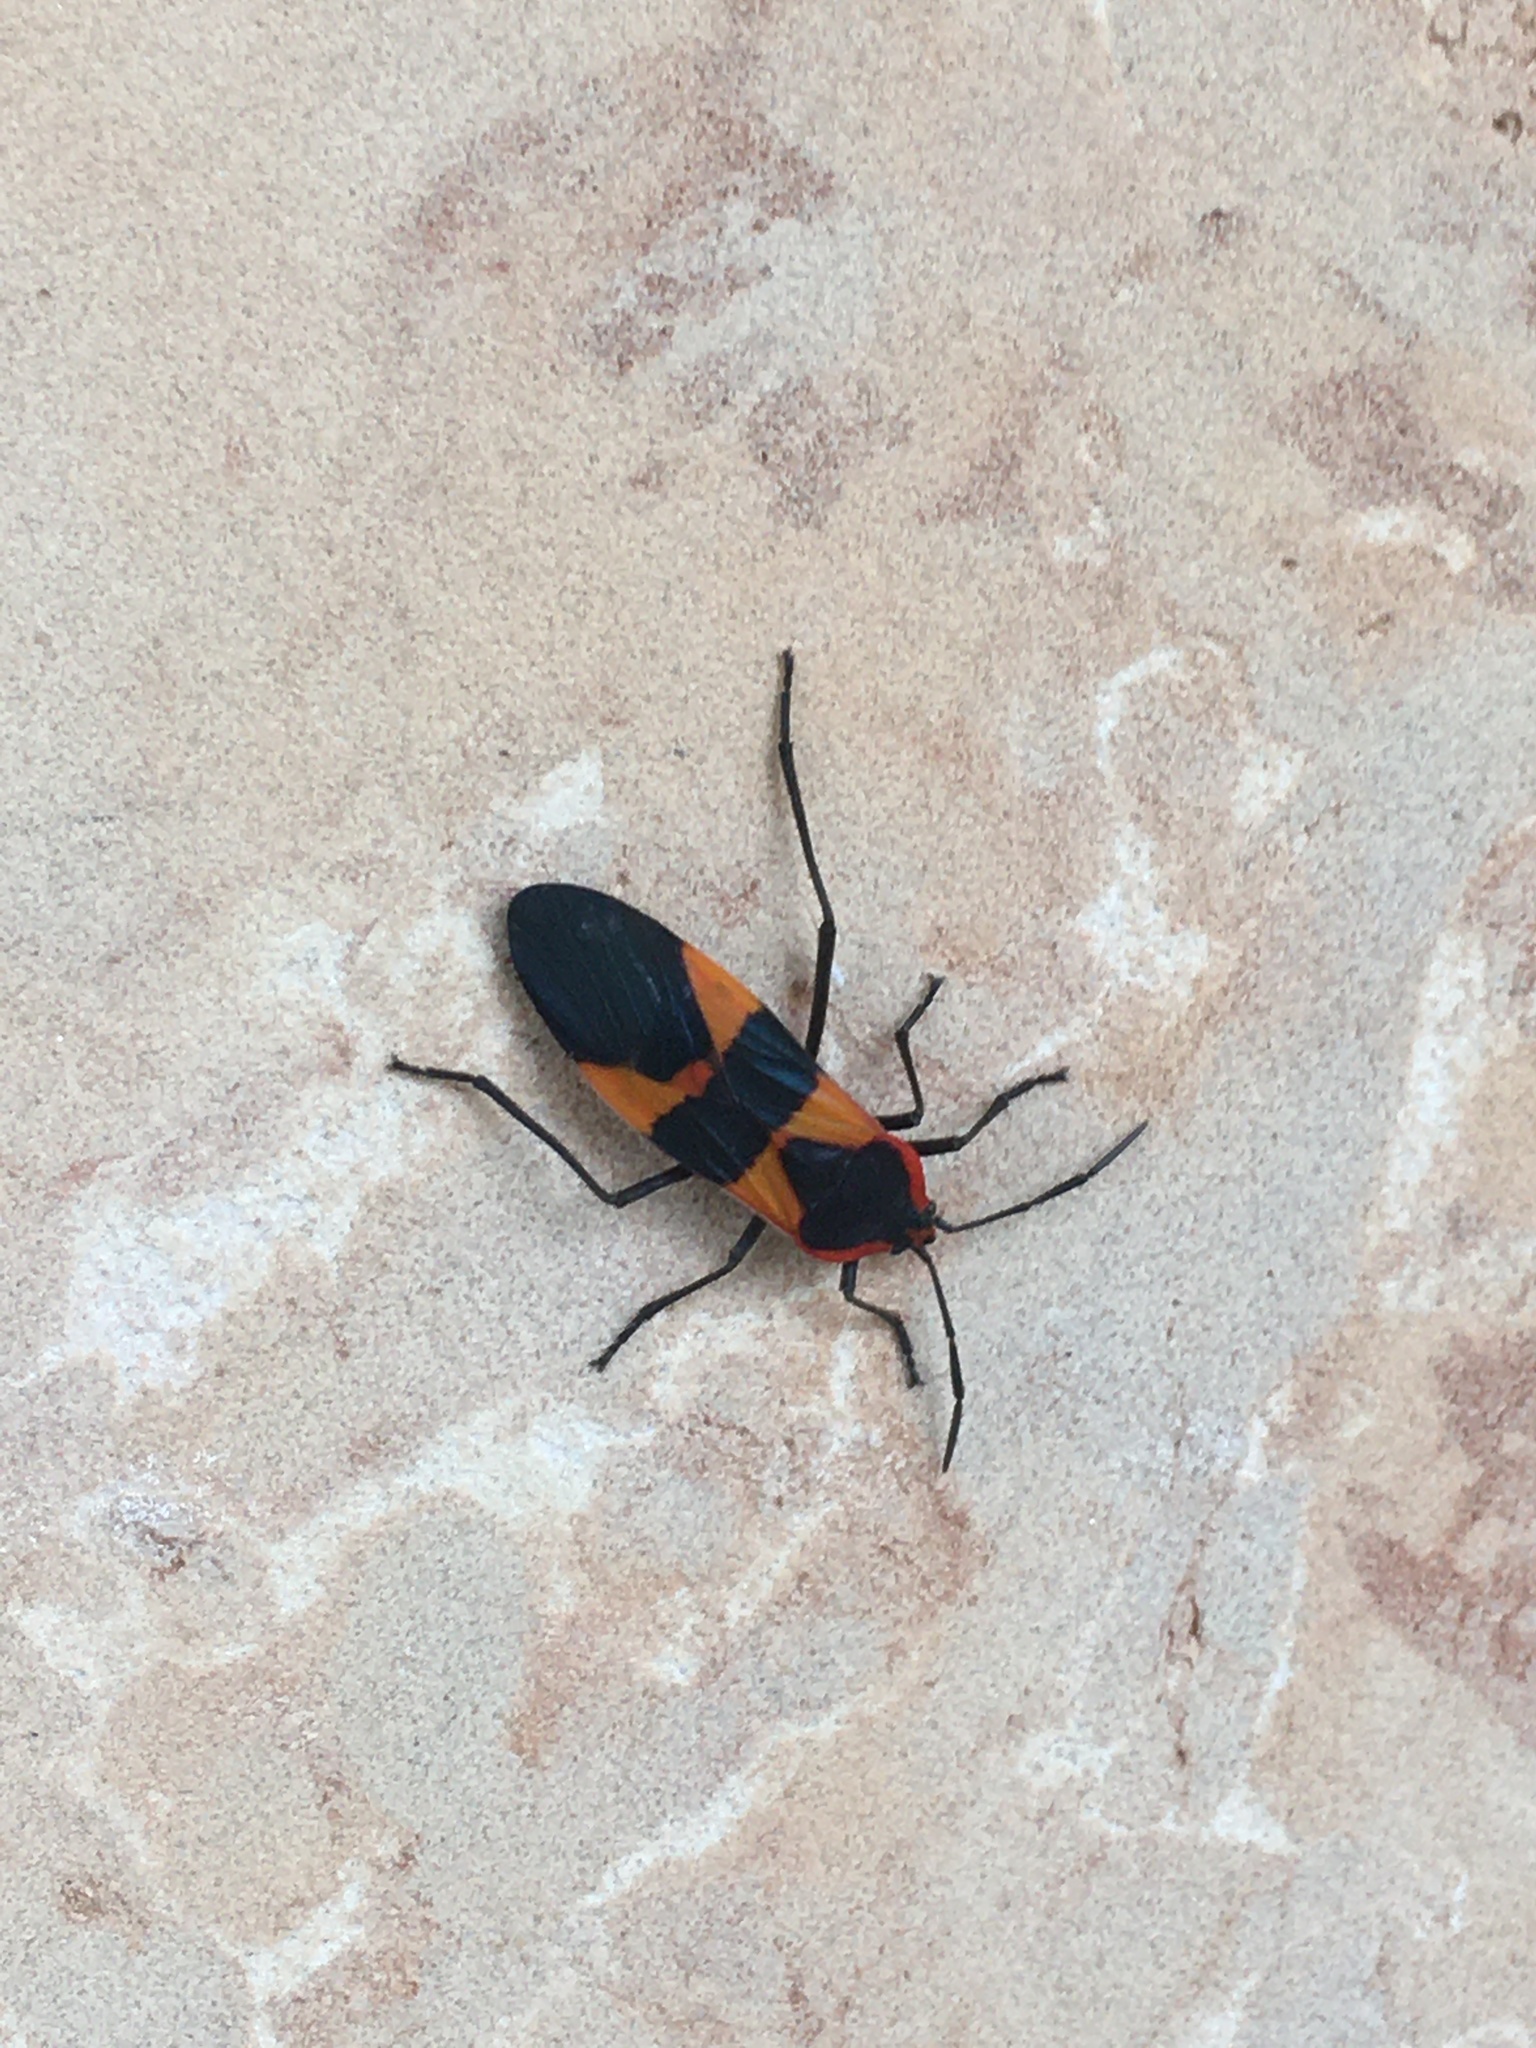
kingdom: Animalia
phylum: Arthropoda
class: Insecta
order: Hemiptera
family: Lygaeidae
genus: Oncopeltus
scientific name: Oncopeltus fasciatus
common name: Large milkweed bug
